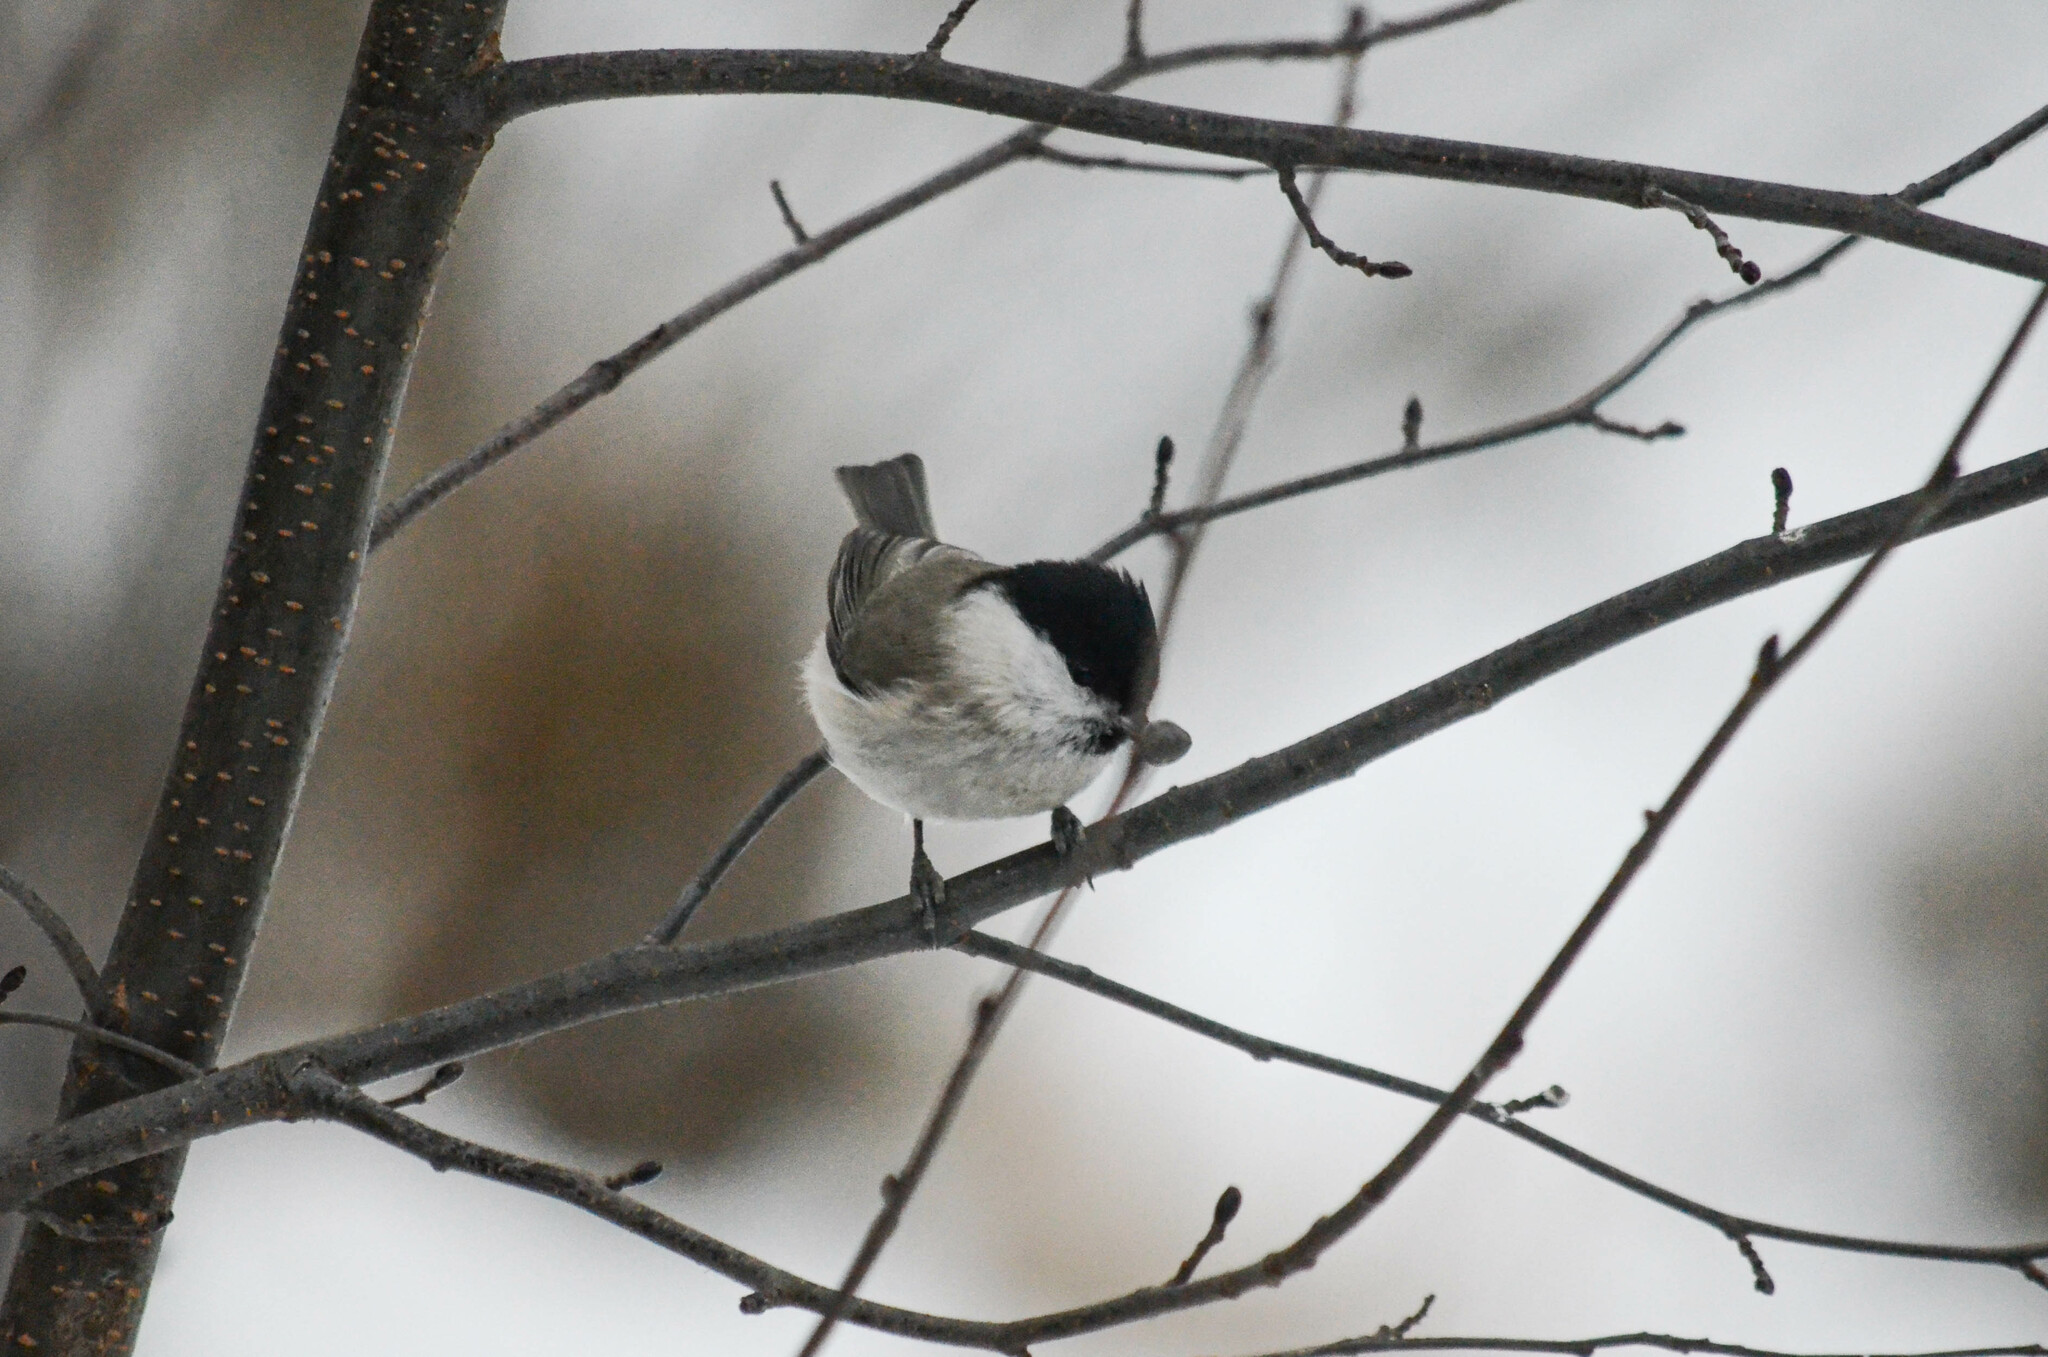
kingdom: Animalia
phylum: Chordata
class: Aves
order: Passeriformes
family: Paridae
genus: Poecile
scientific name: Poecile palustris
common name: Marsh tit
